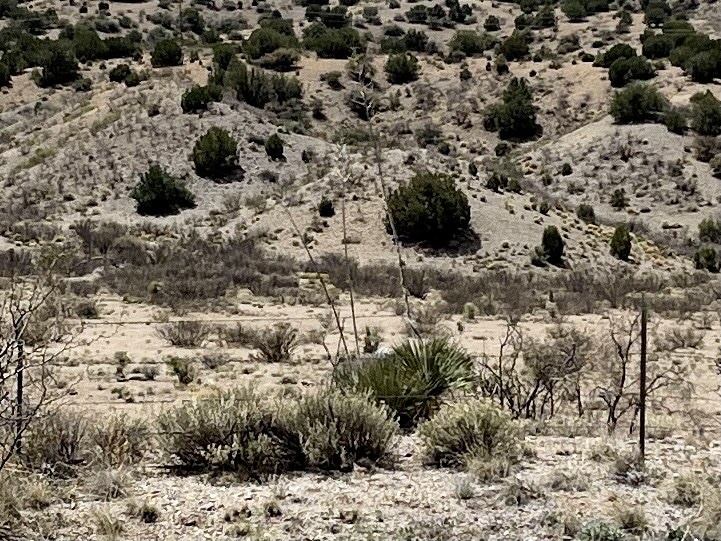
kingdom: Plantae
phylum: Tracheophyta
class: Liliopsida
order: Asparagales
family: Asparagaceae
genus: Yucca
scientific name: Yucca elata
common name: Palmella
